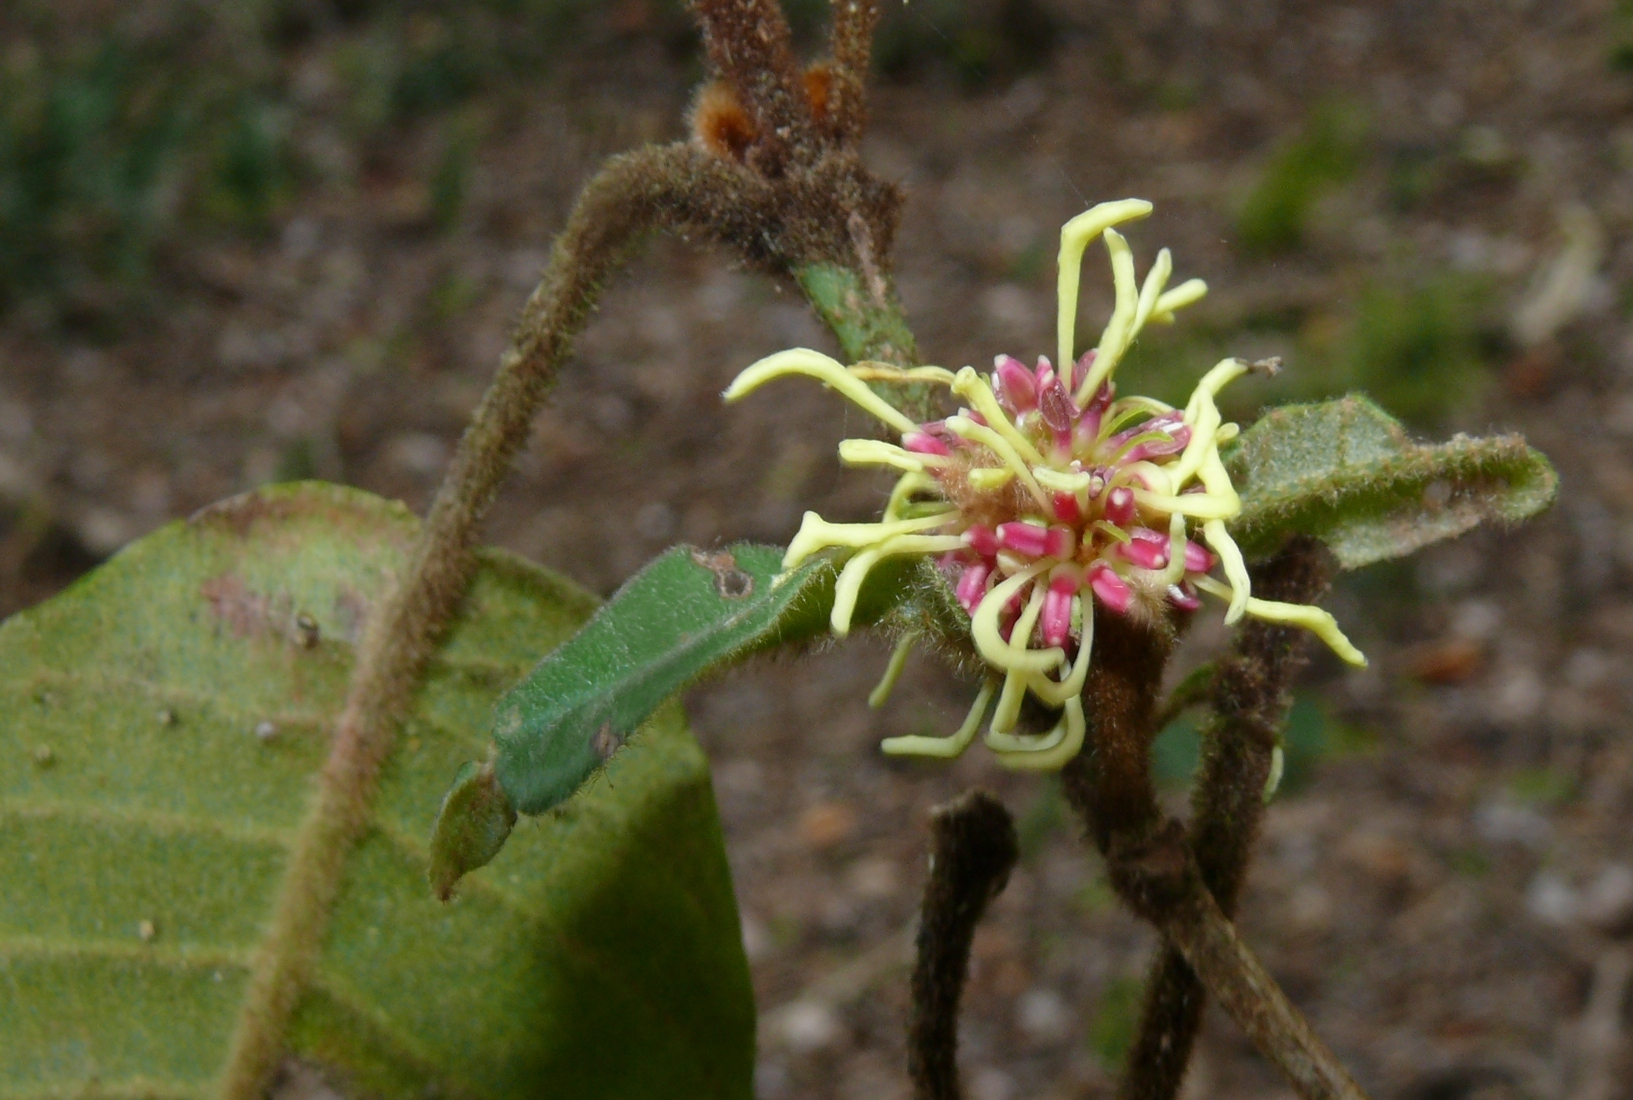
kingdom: Plantae
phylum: Tracheophyta
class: Magnoliopsida
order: Saxifragales
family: Hamamelidaceae
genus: Trichocladus
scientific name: Trichocladus crinitus
